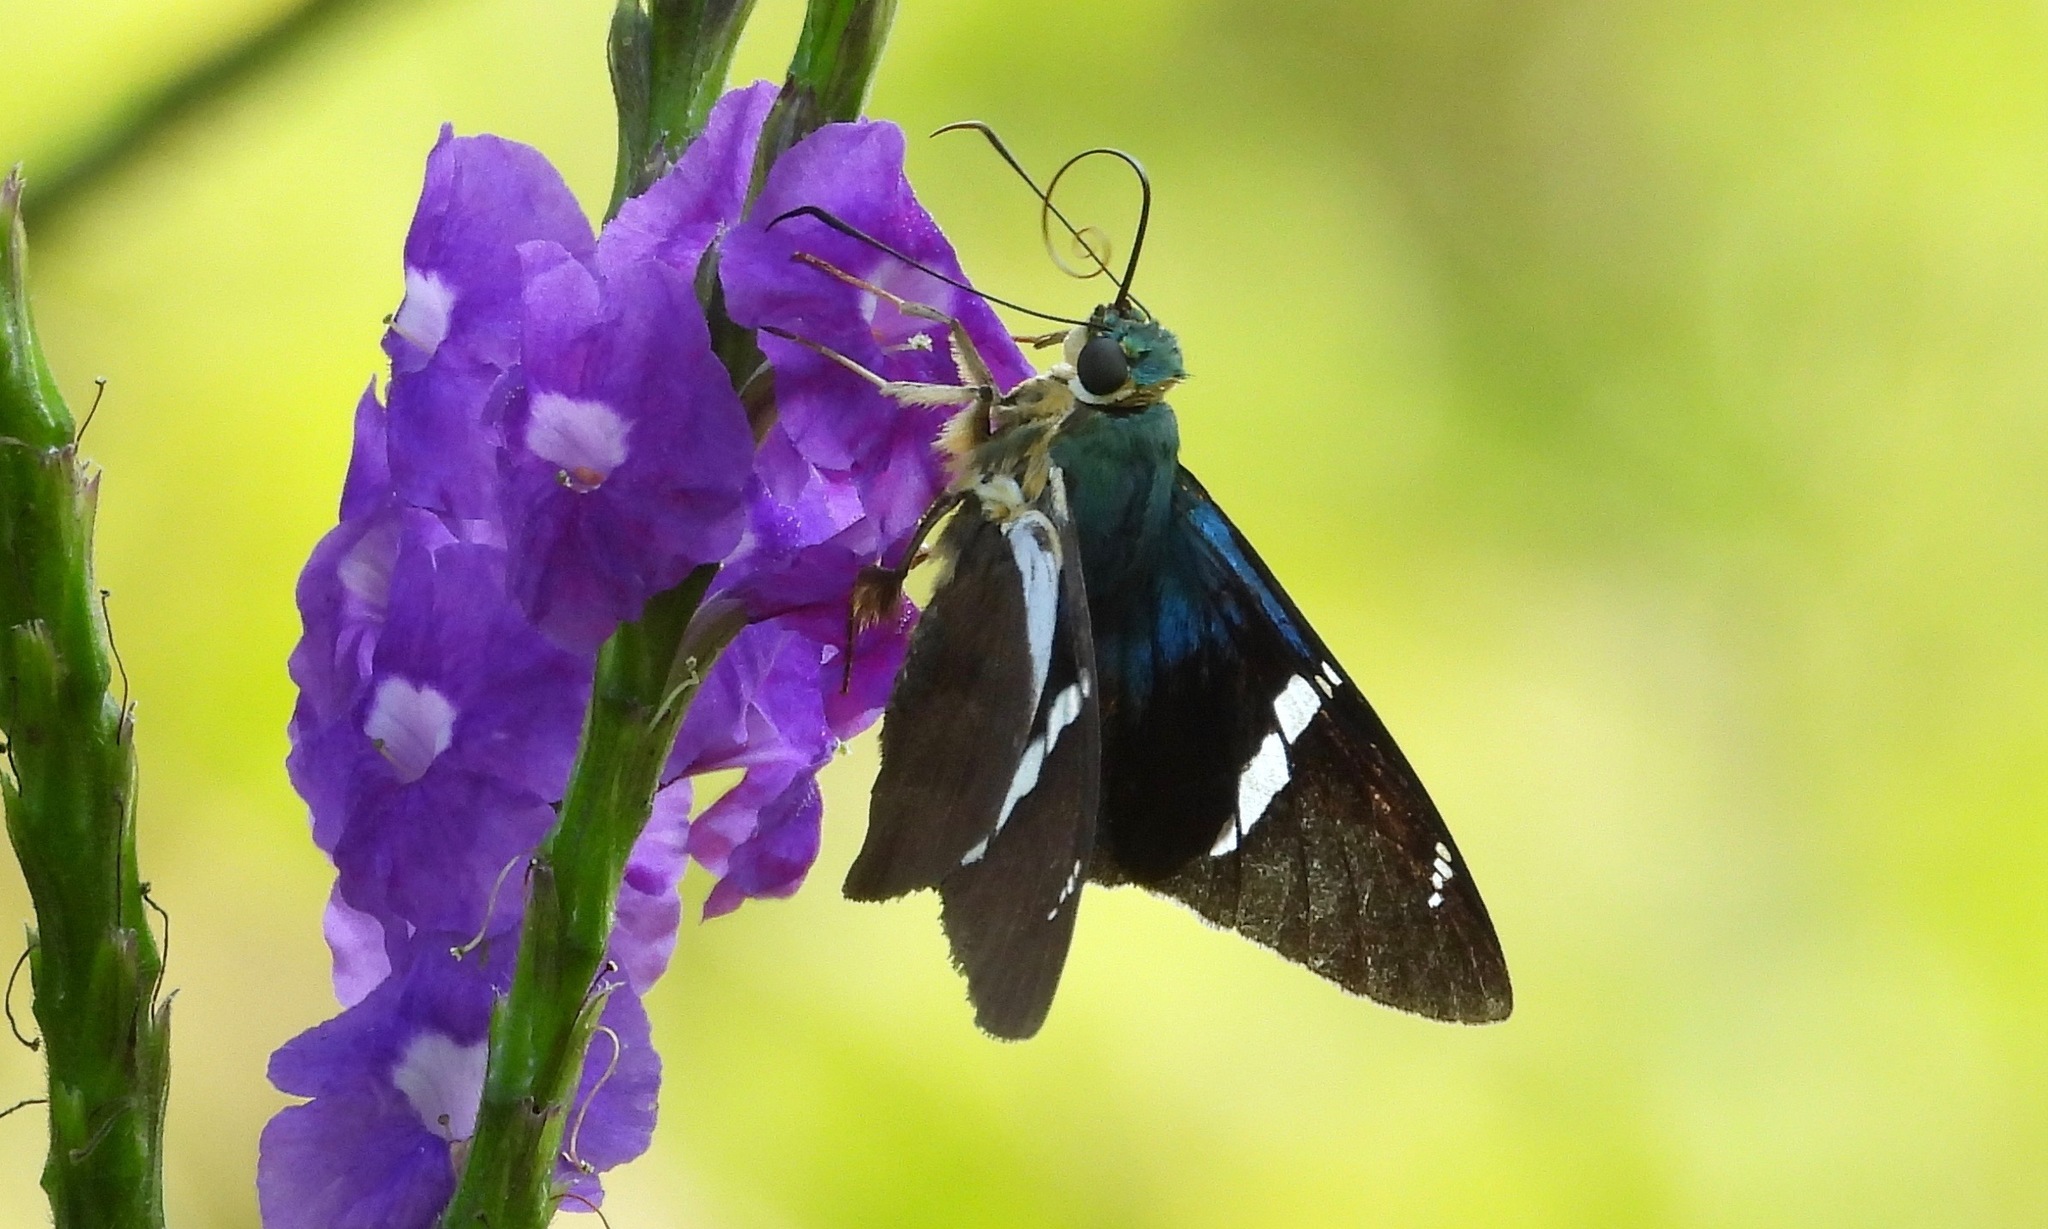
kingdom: Animalia
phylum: Arthropoda
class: Insecta
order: Lepidoptera
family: Hesperiidae
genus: Astraptes
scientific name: Astraptes fulgerator
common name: Two-barred flasher
